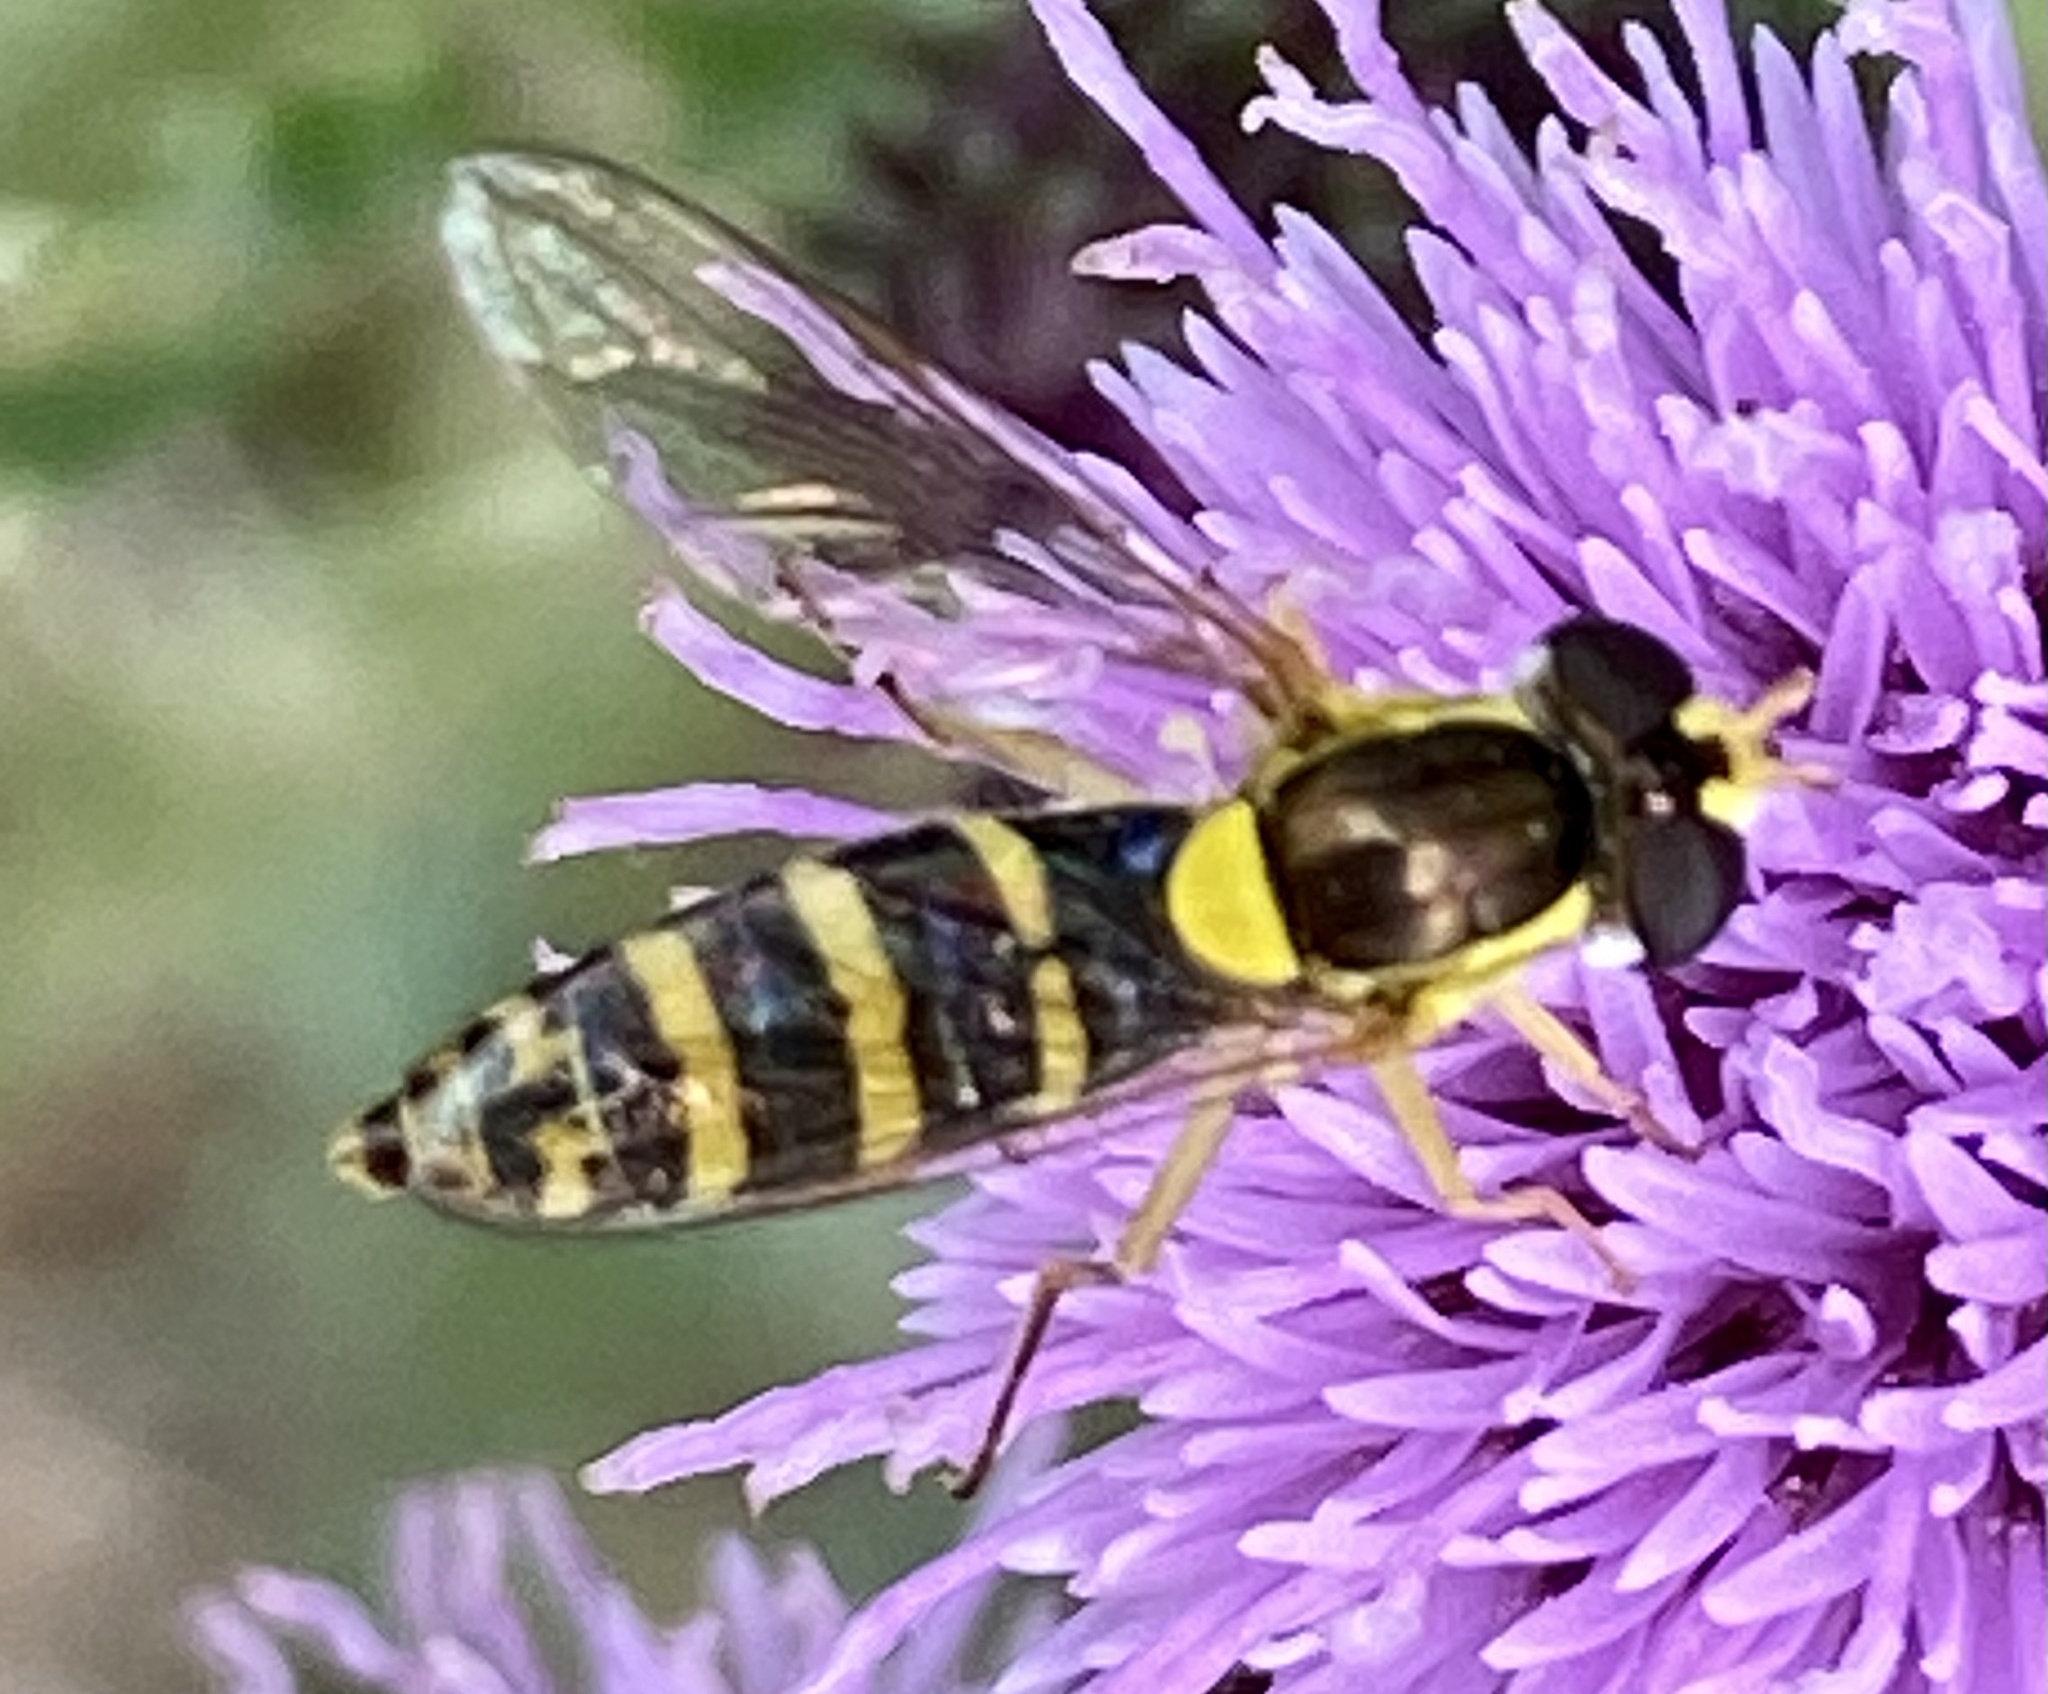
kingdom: Animalia
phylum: Arthropoda
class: Insecta
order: Diptera
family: Syrphidae
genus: Sphaerophoria
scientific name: Sphaerophoria
